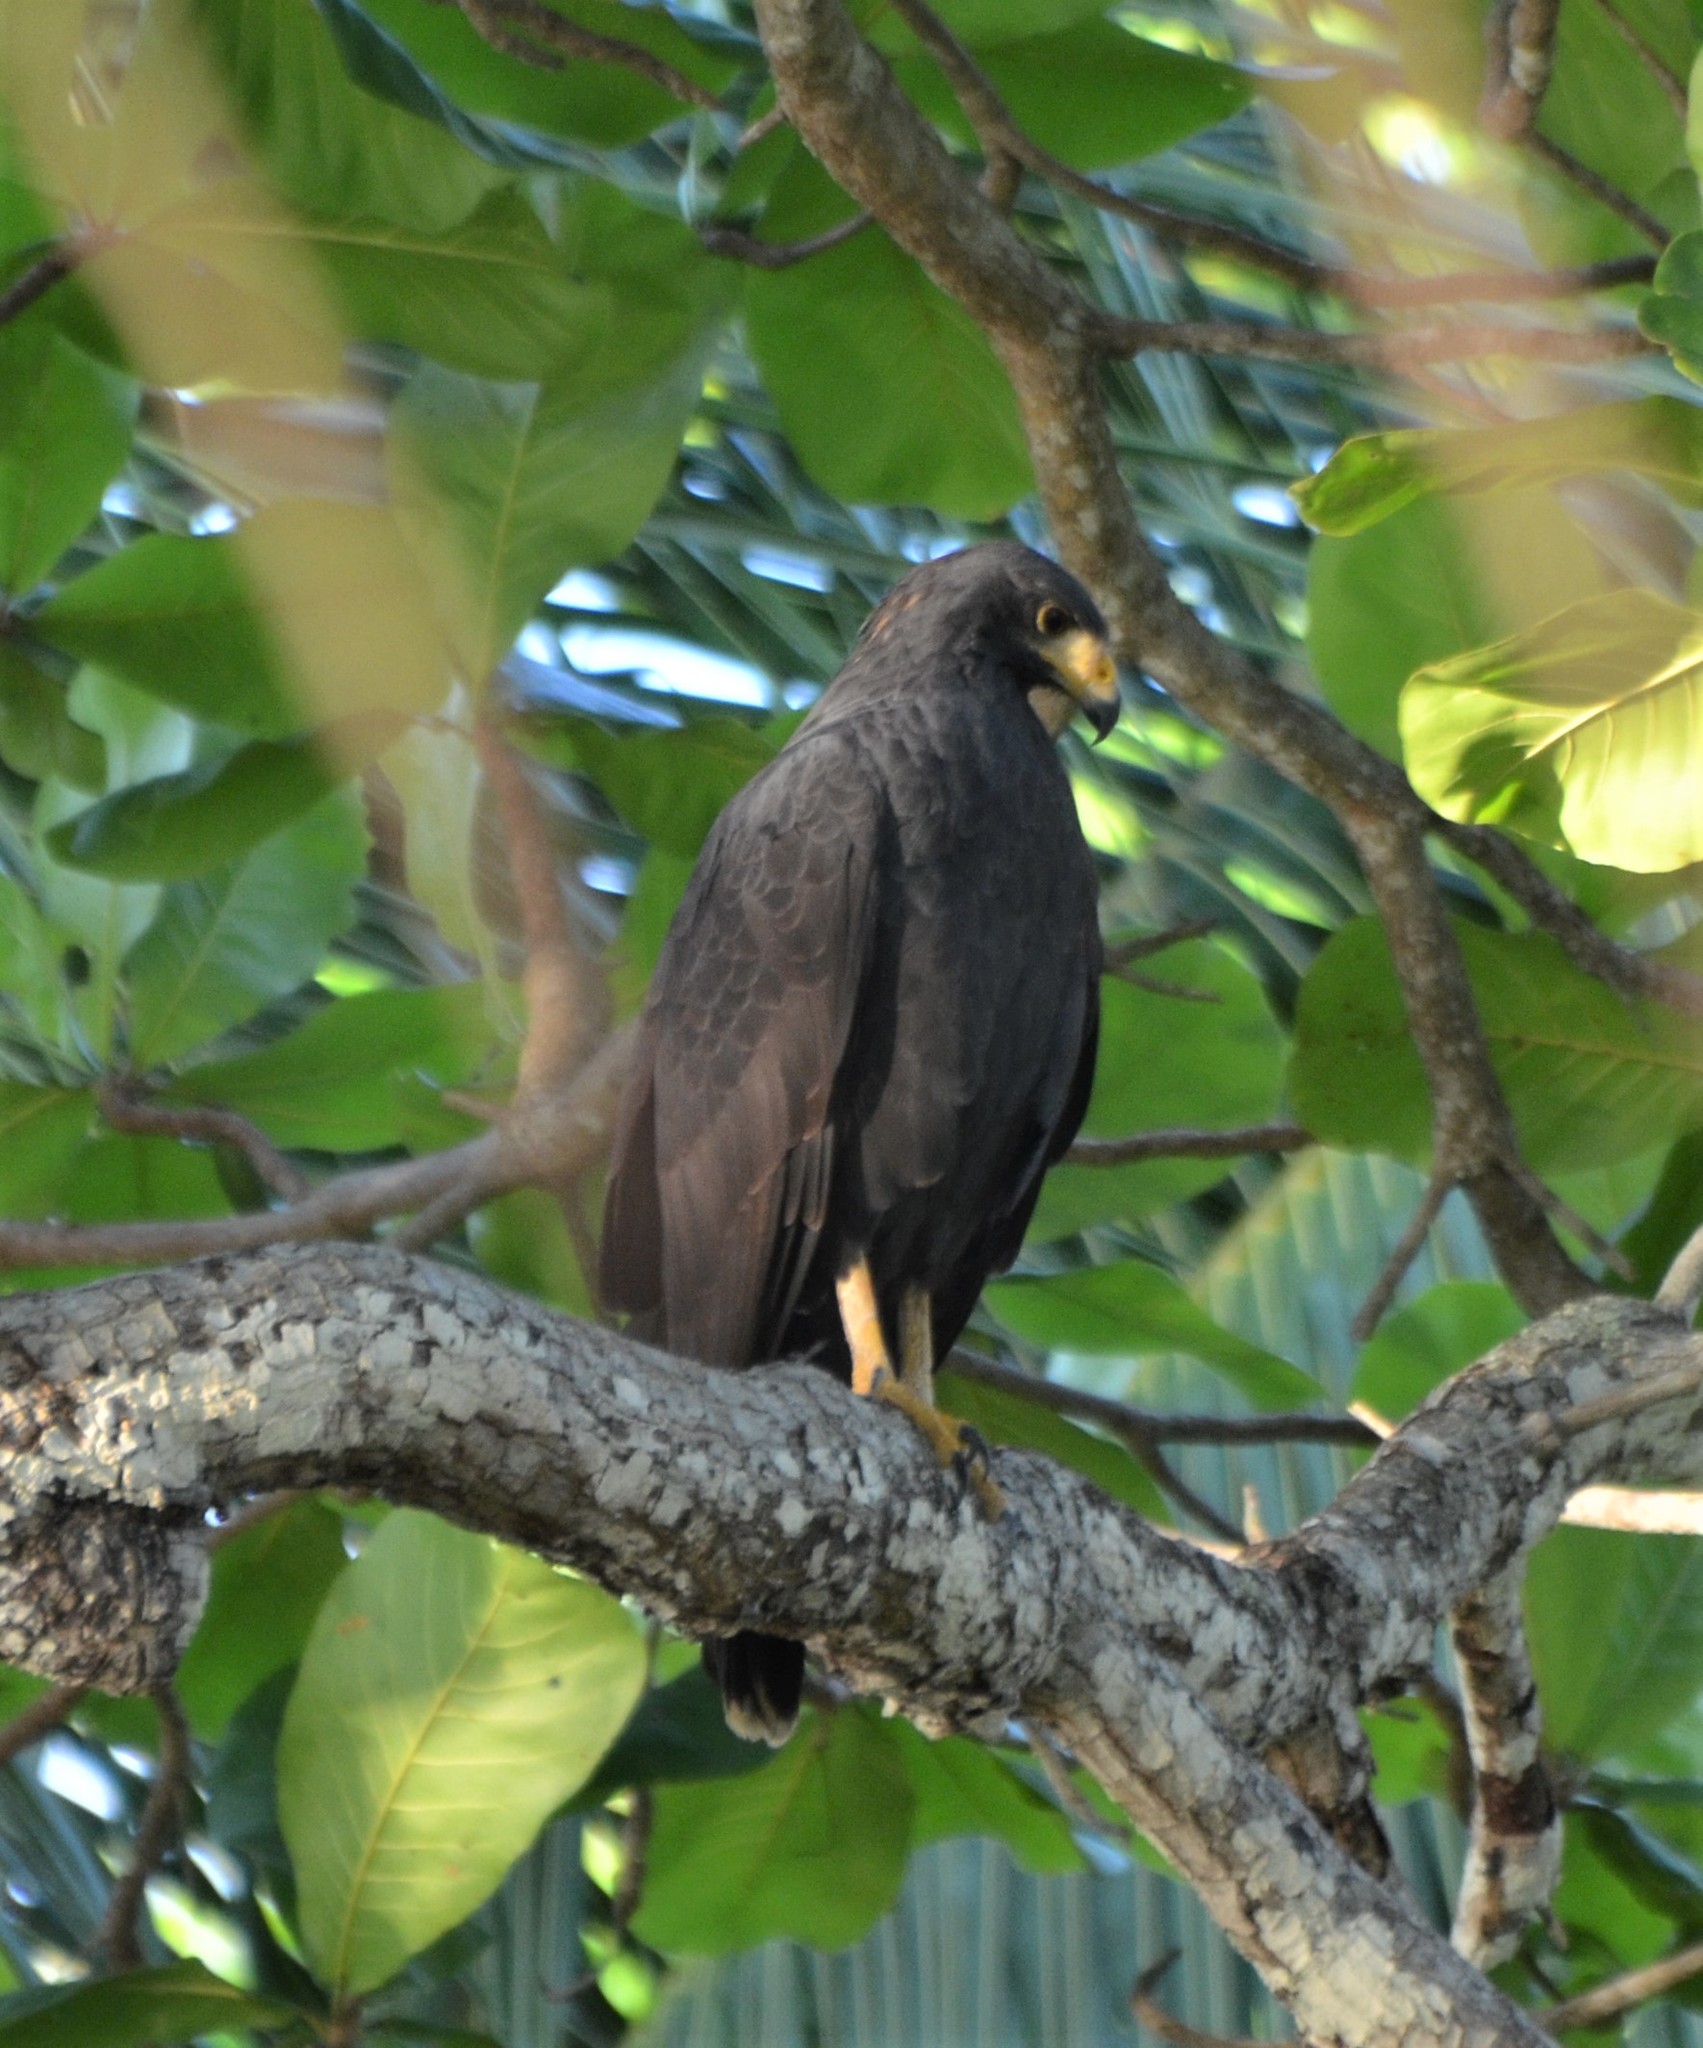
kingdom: Animalia
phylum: Chordata
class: Aves
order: Accipitriformes
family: Accipitridae
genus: Buteogallus
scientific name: Buteogallus anthracinus
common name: Common black hawk
